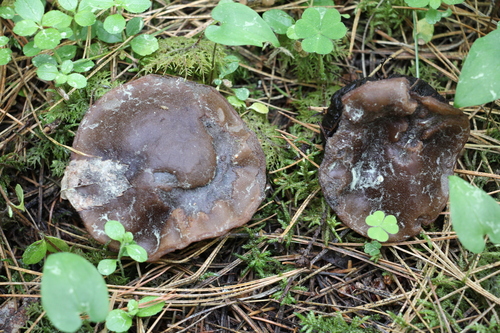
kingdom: Fungi
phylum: Ascomycota
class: Pezizomycetes
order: Pezizales
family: Sarcosomataceae
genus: Sarcosoma
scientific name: Sarcosoma globosum
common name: Charred-pancake cup
